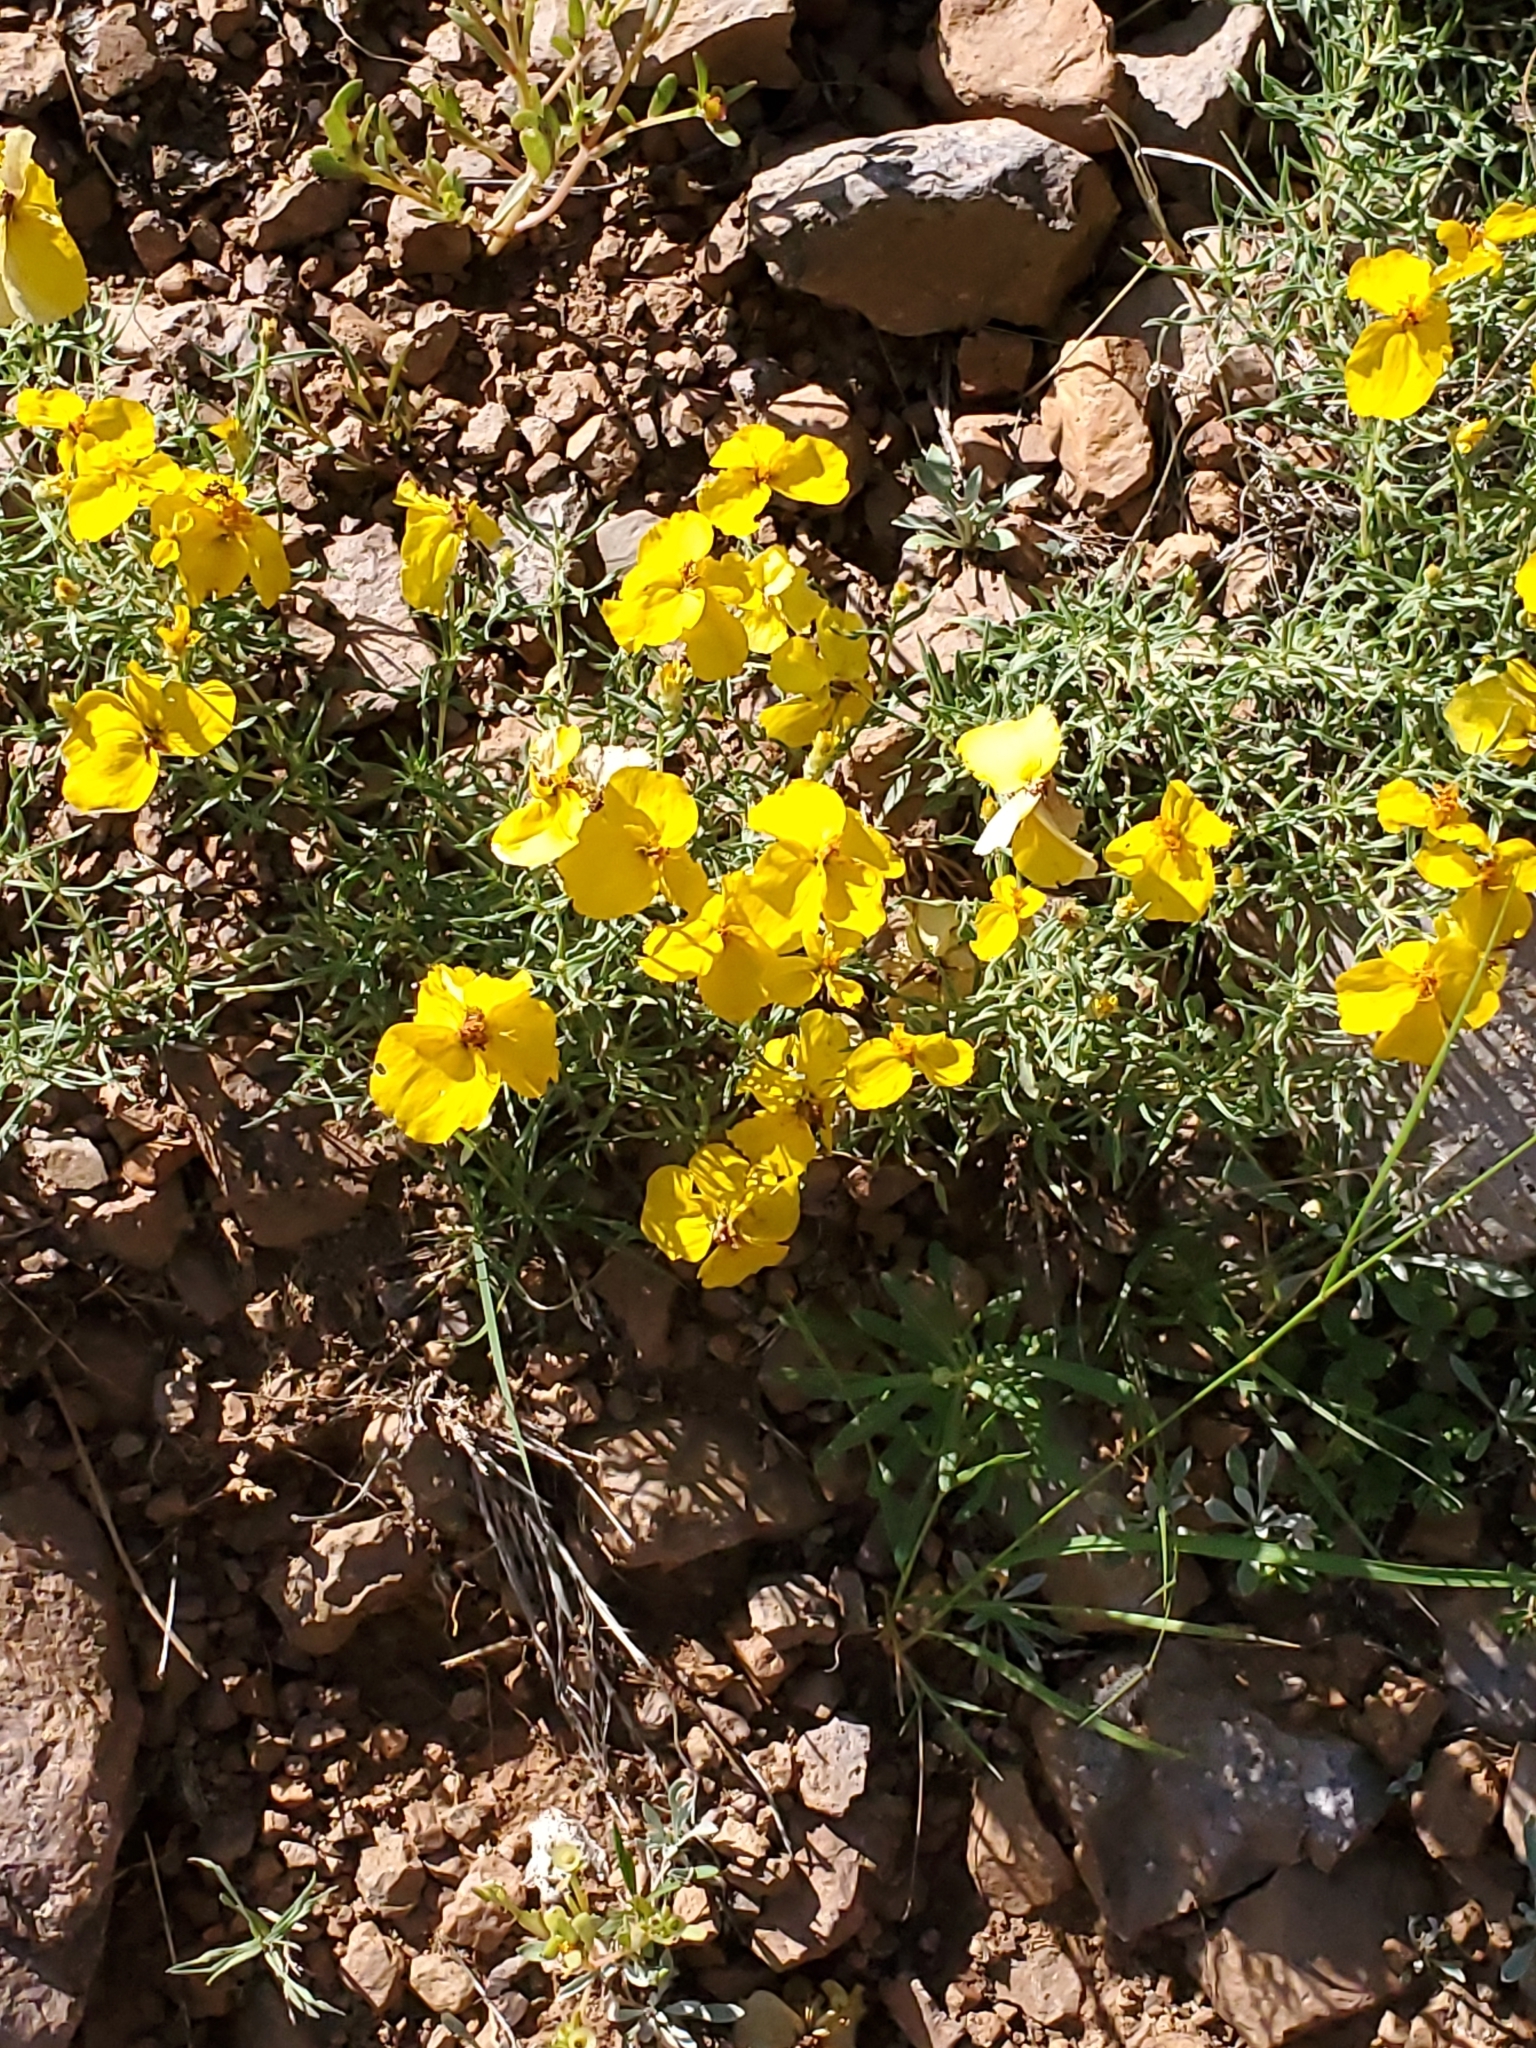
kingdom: Plantae
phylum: Tracheophyta
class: Magnoliopsida
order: Asterales
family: Asteraceae
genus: Zinnia
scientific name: Zinnia grandiflora
